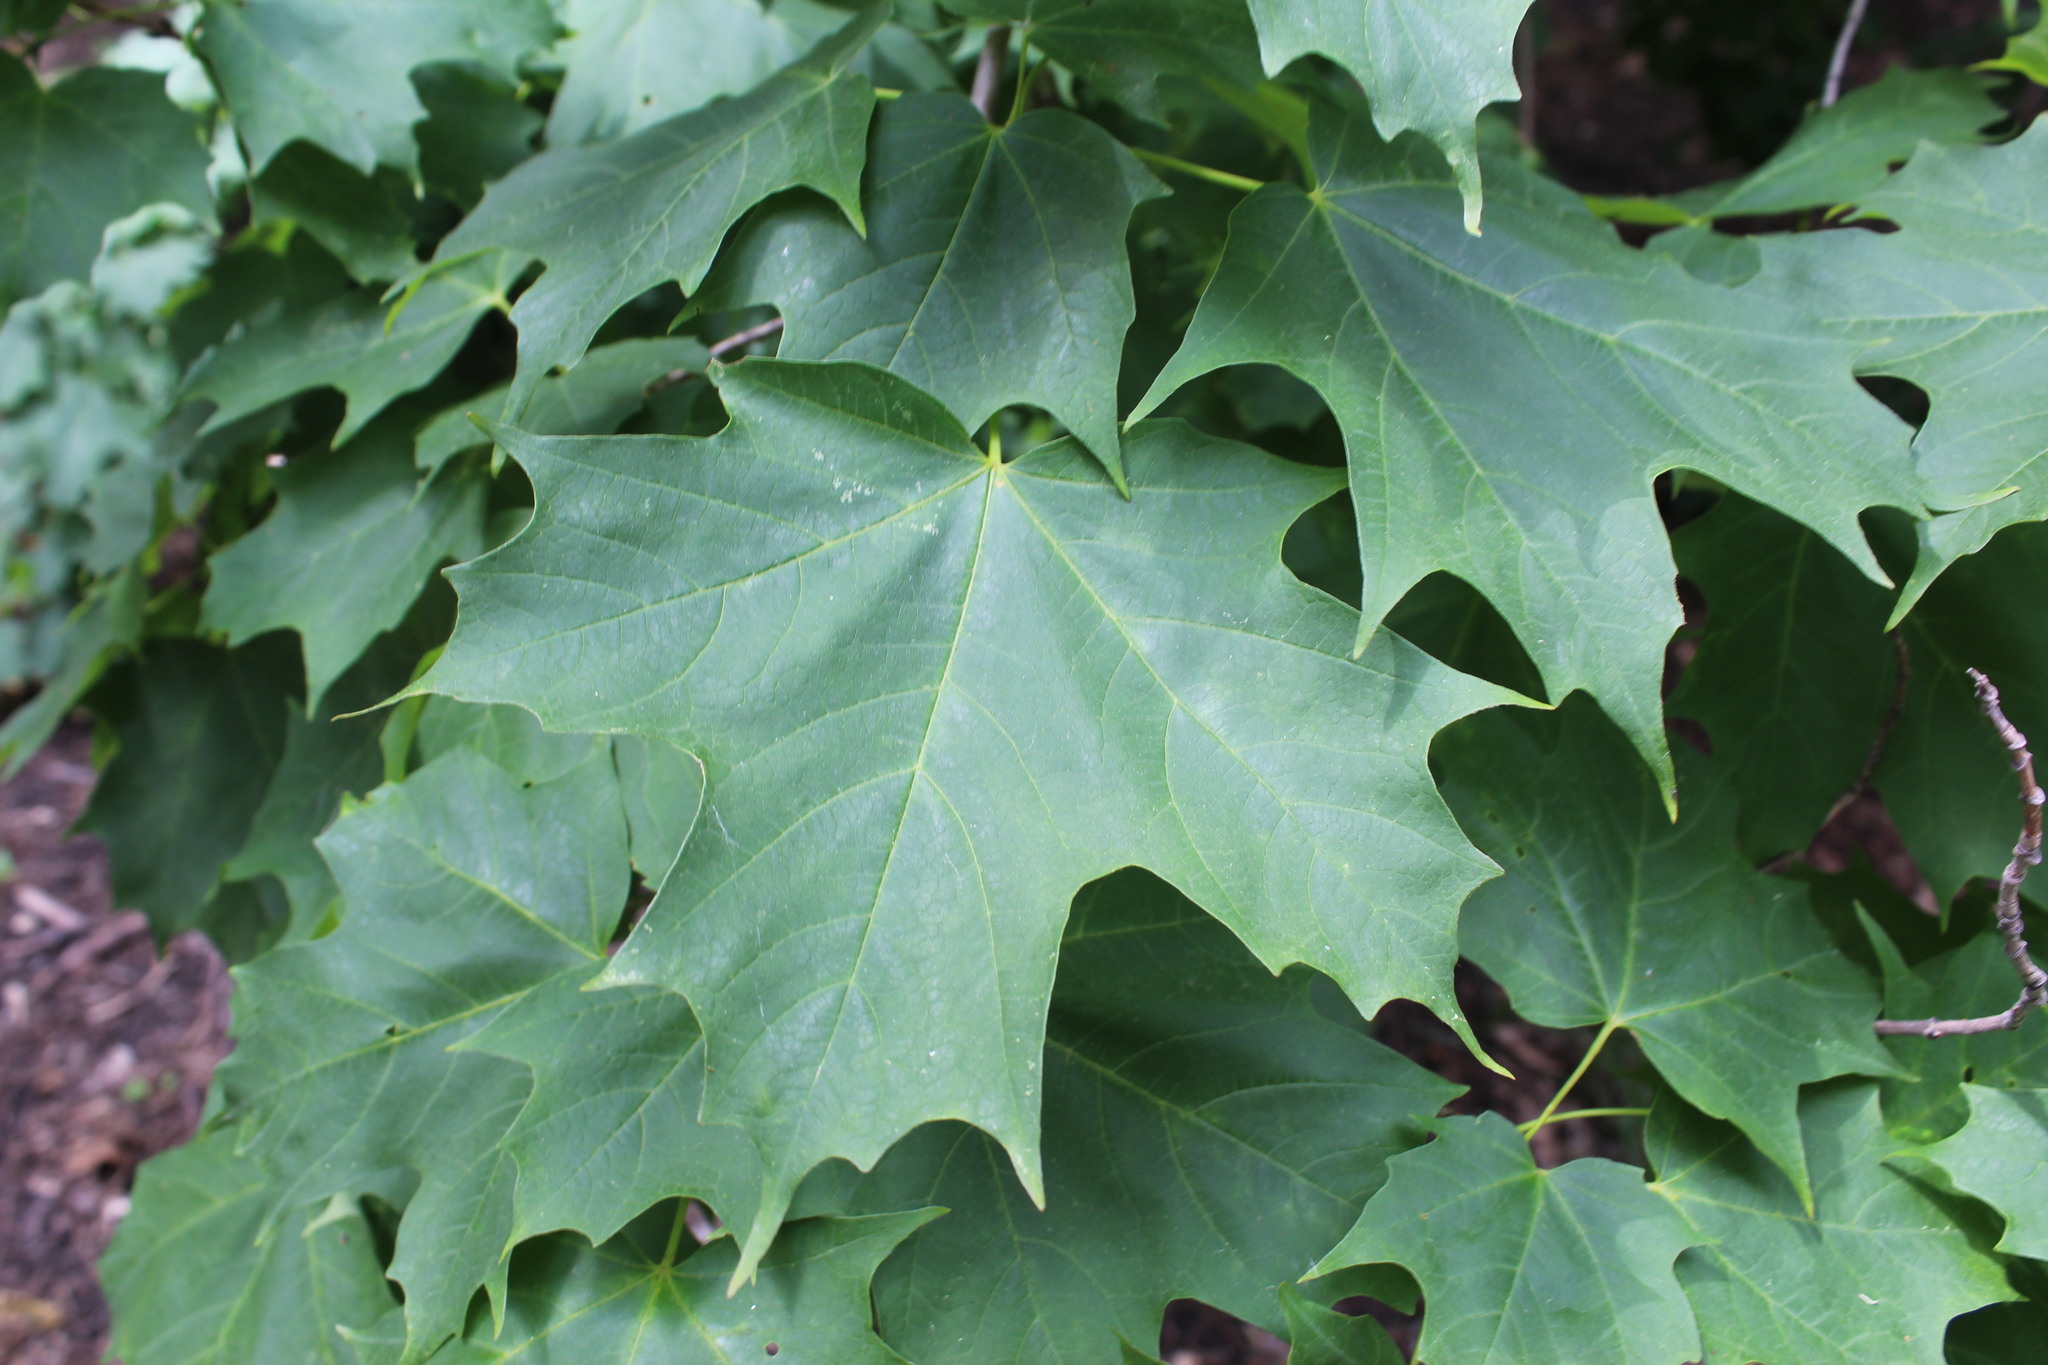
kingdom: Plantae
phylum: Tracheophyta
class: Magnoliopsida
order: Sapindales
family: Sapindaceae
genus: Acer
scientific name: Acer saccharum
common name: Sugar maple
